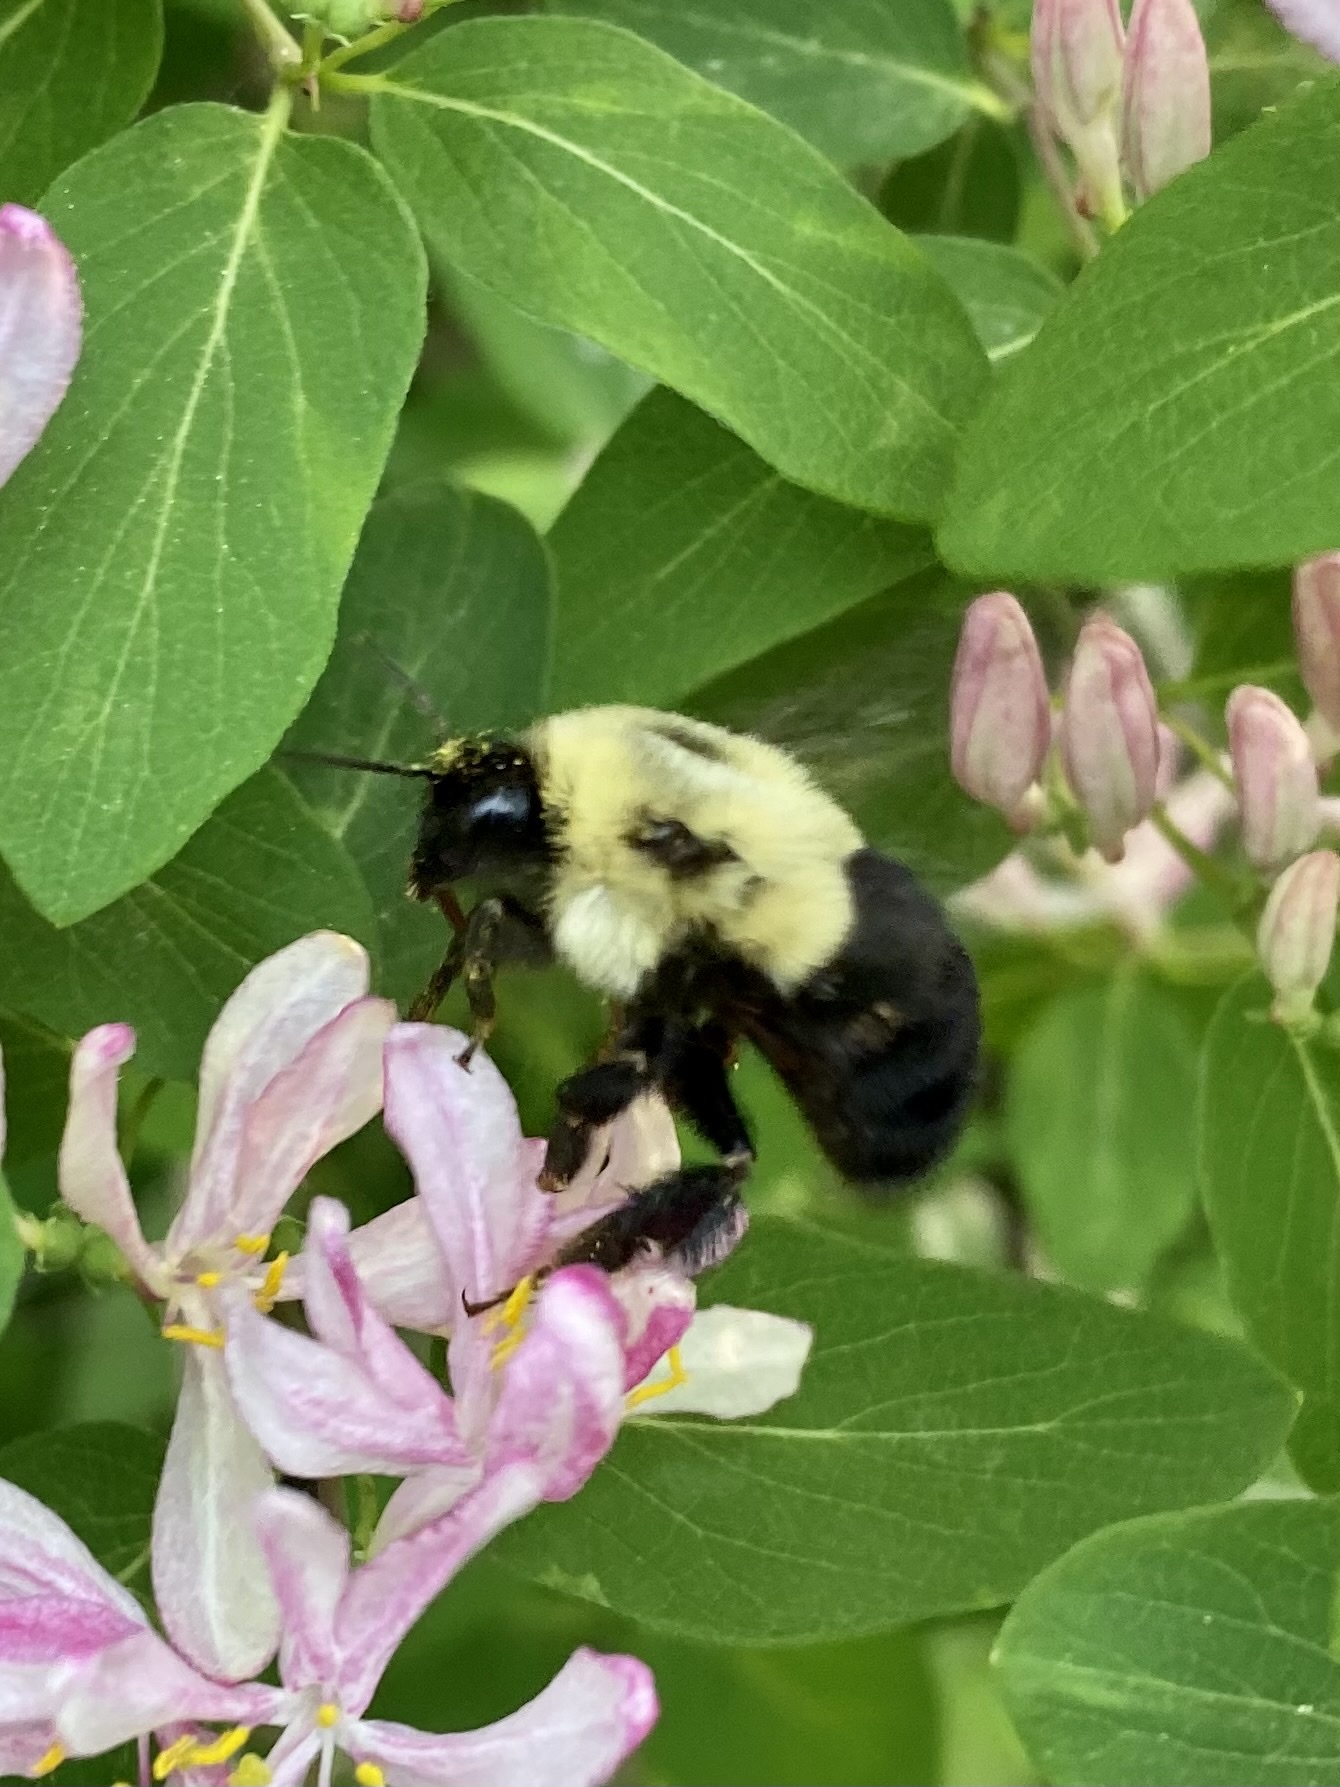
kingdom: Animalia
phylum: Arthropoda
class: Insecta
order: Hymenoptera
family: Apidae
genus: Bombus
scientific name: Bombus impatiens
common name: Common eastern bumble bee
